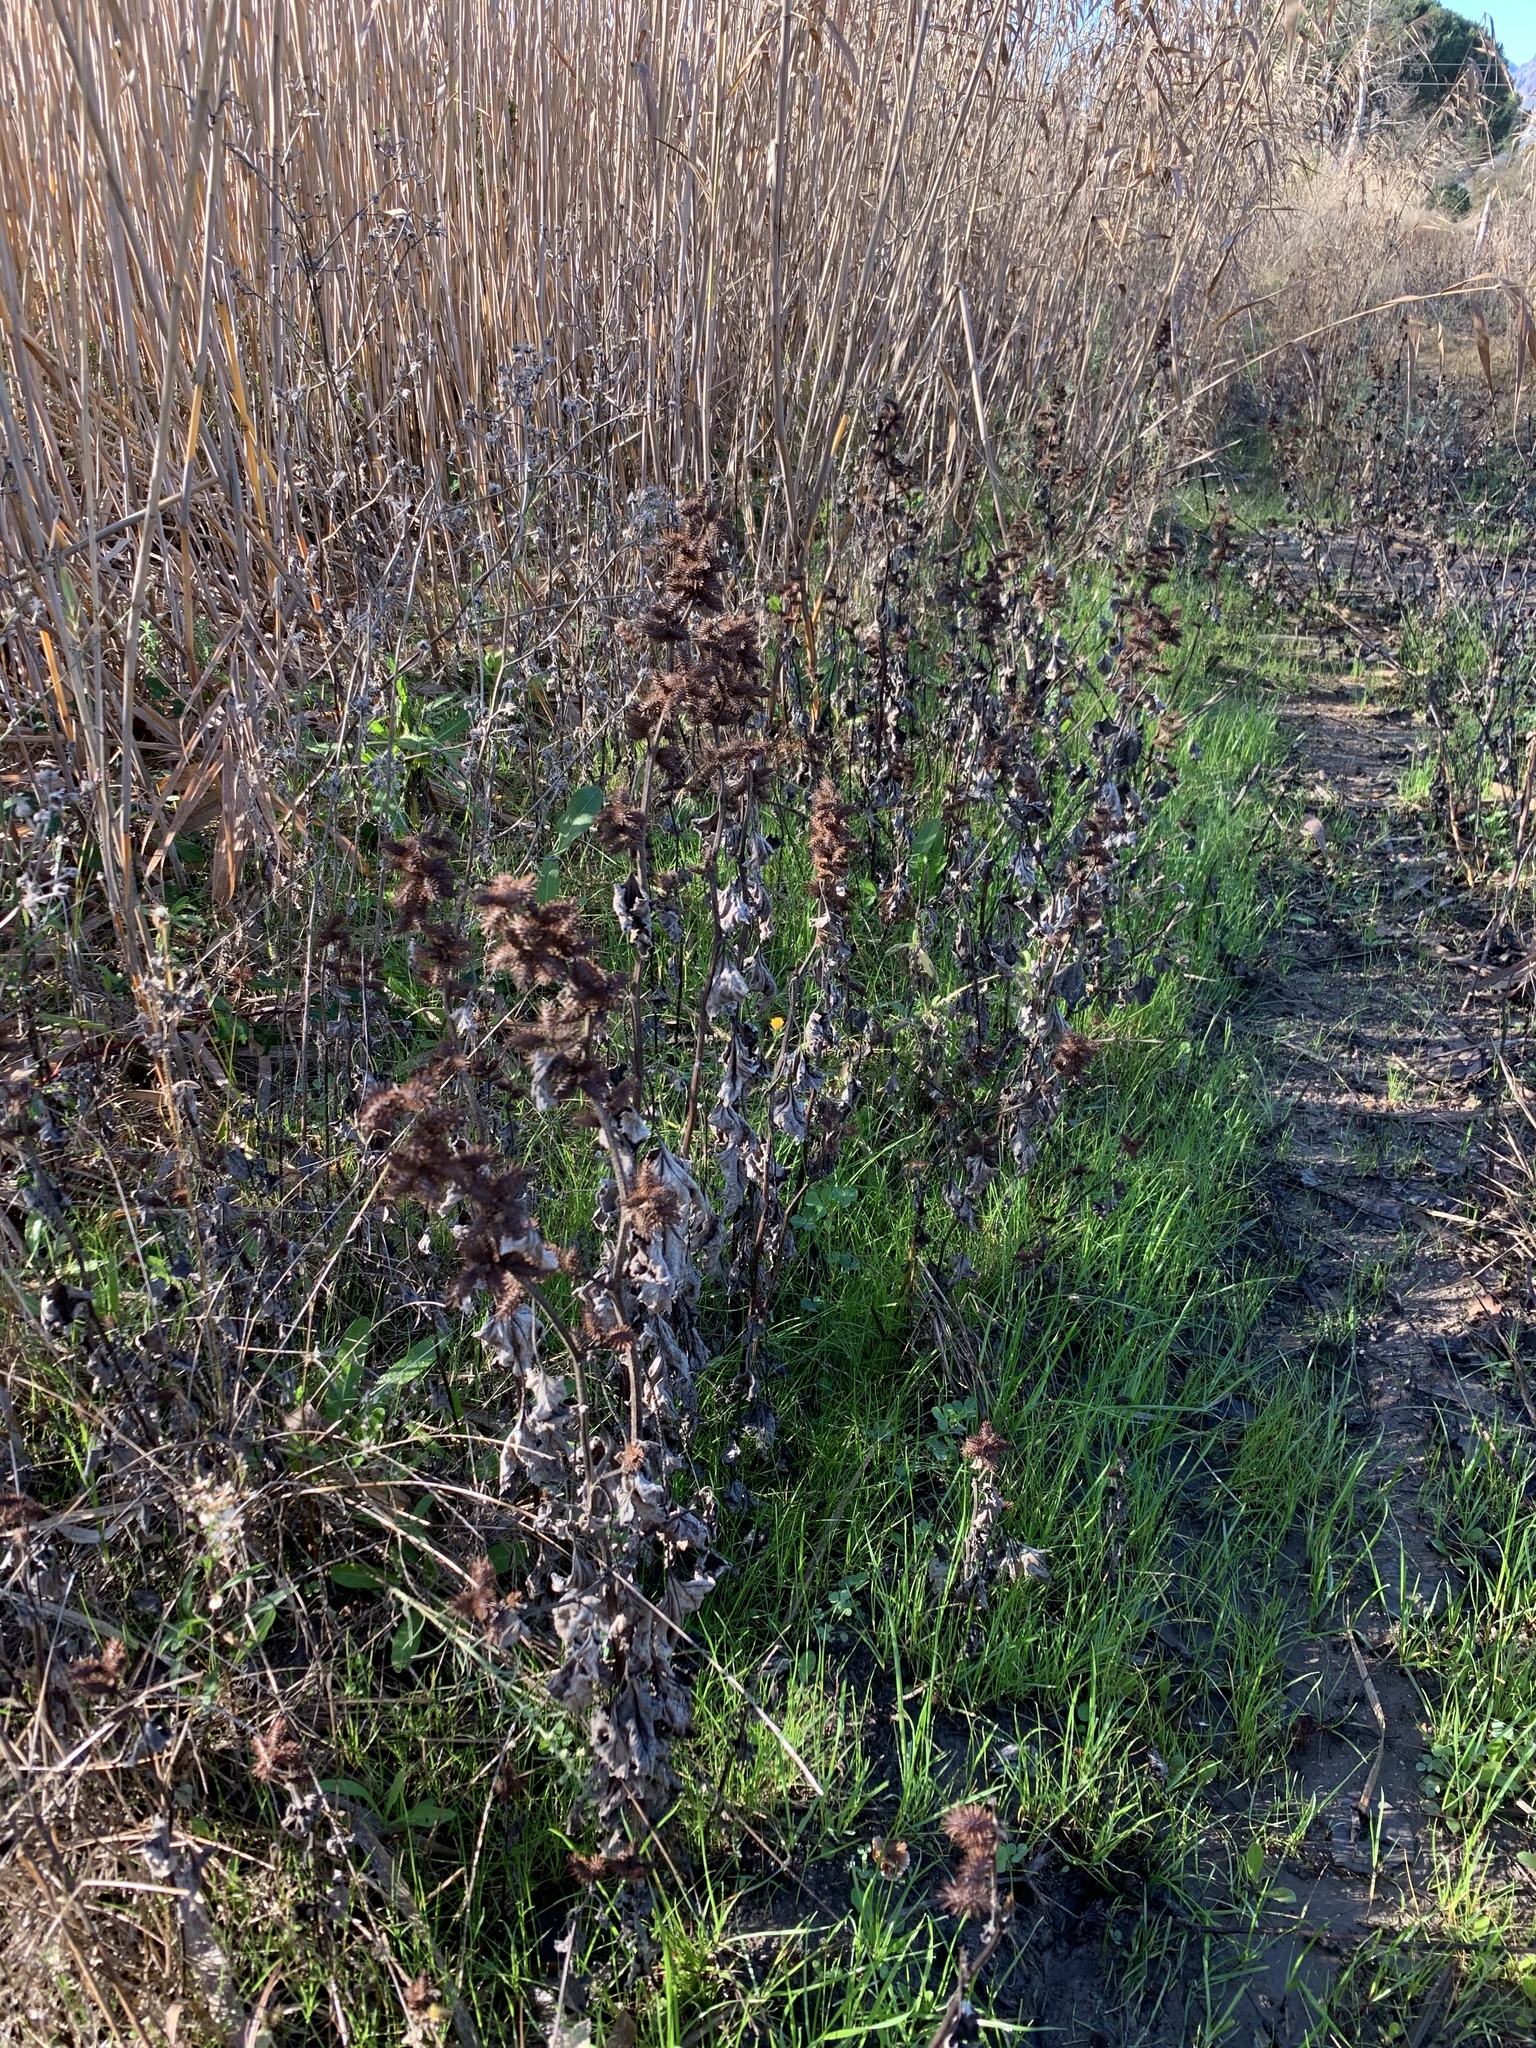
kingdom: Plantae
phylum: Tracheophyta
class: Magnoliopsida
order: Asterales
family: Asteraceae
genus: Xanthium
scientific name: Xanthium strumarium
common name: Rough cocklebur
